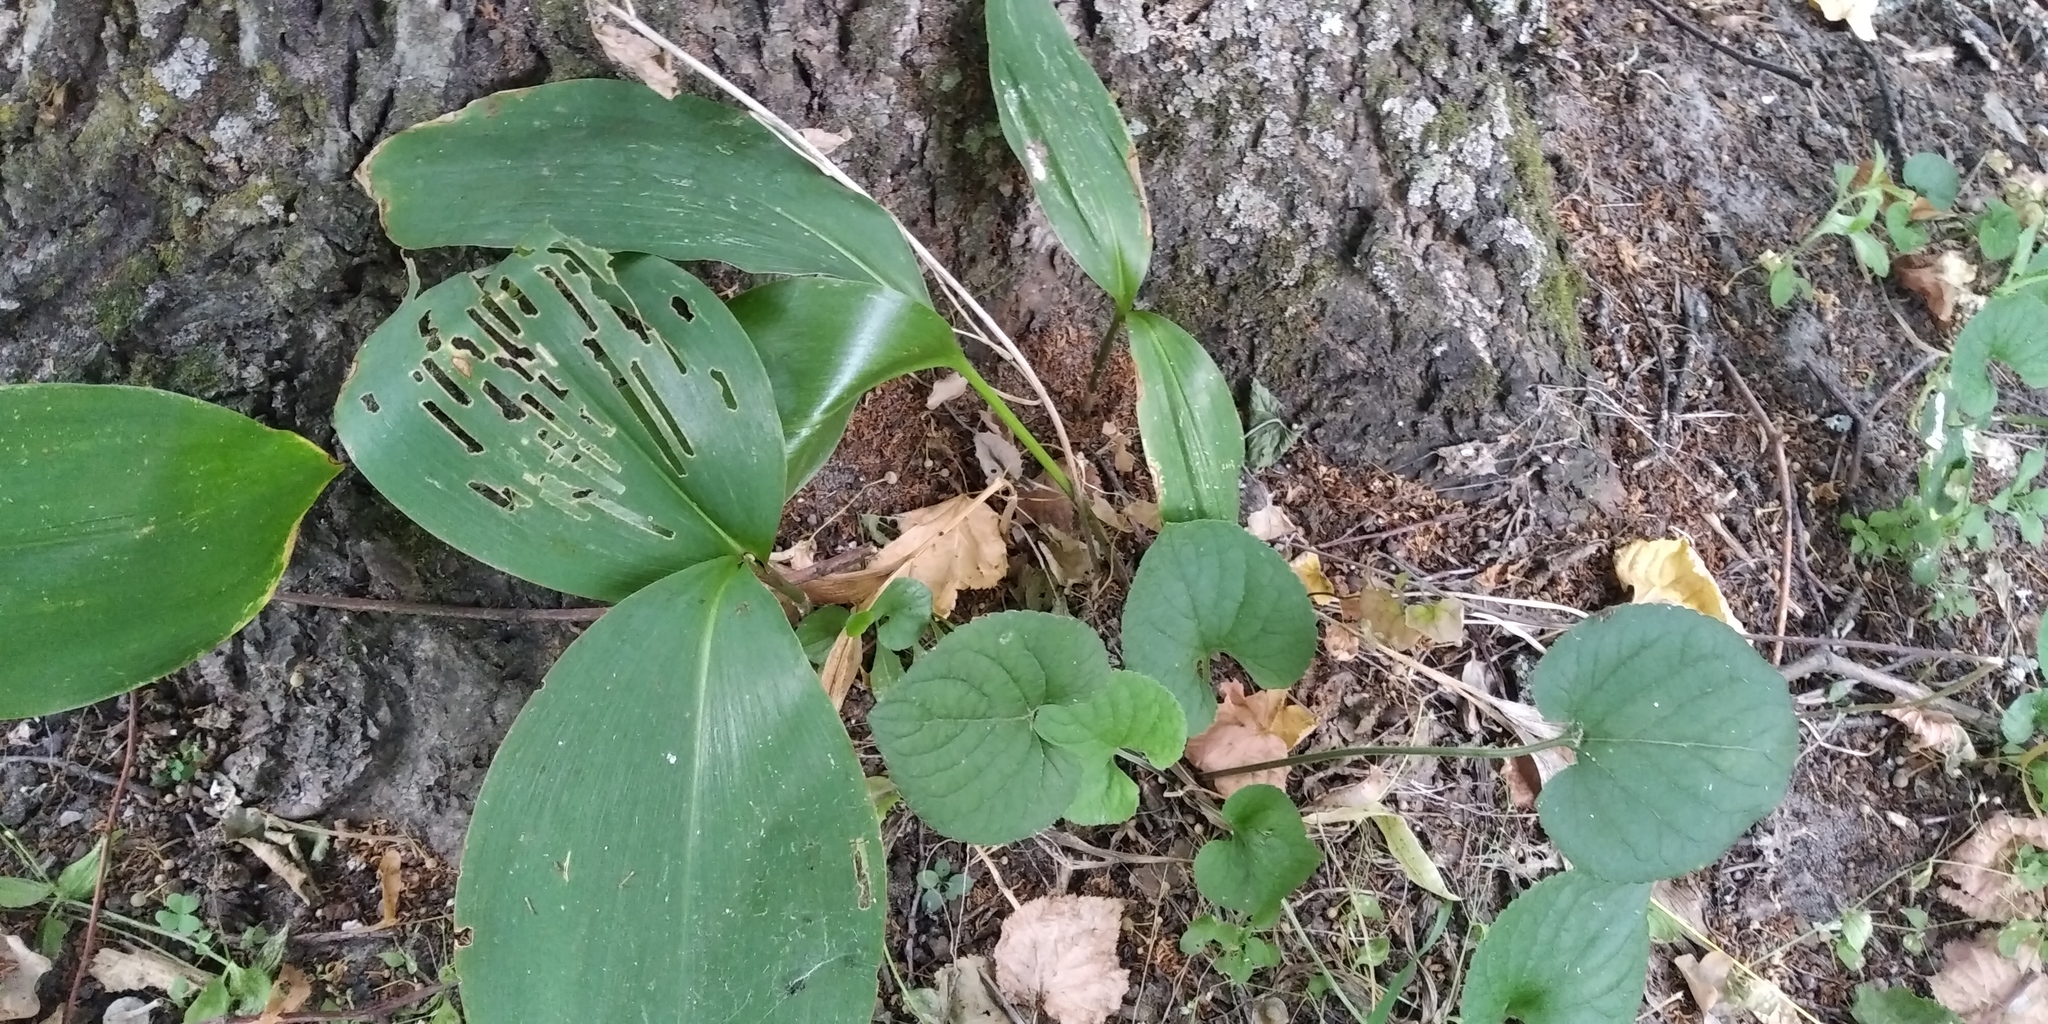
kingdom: Plantae
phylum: Tracheophyta
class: Liliopsida
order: Asparagales
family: Asparagaceae
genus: Convallaria
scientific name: Convallaria majalis
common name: Lily-of-the-valley
